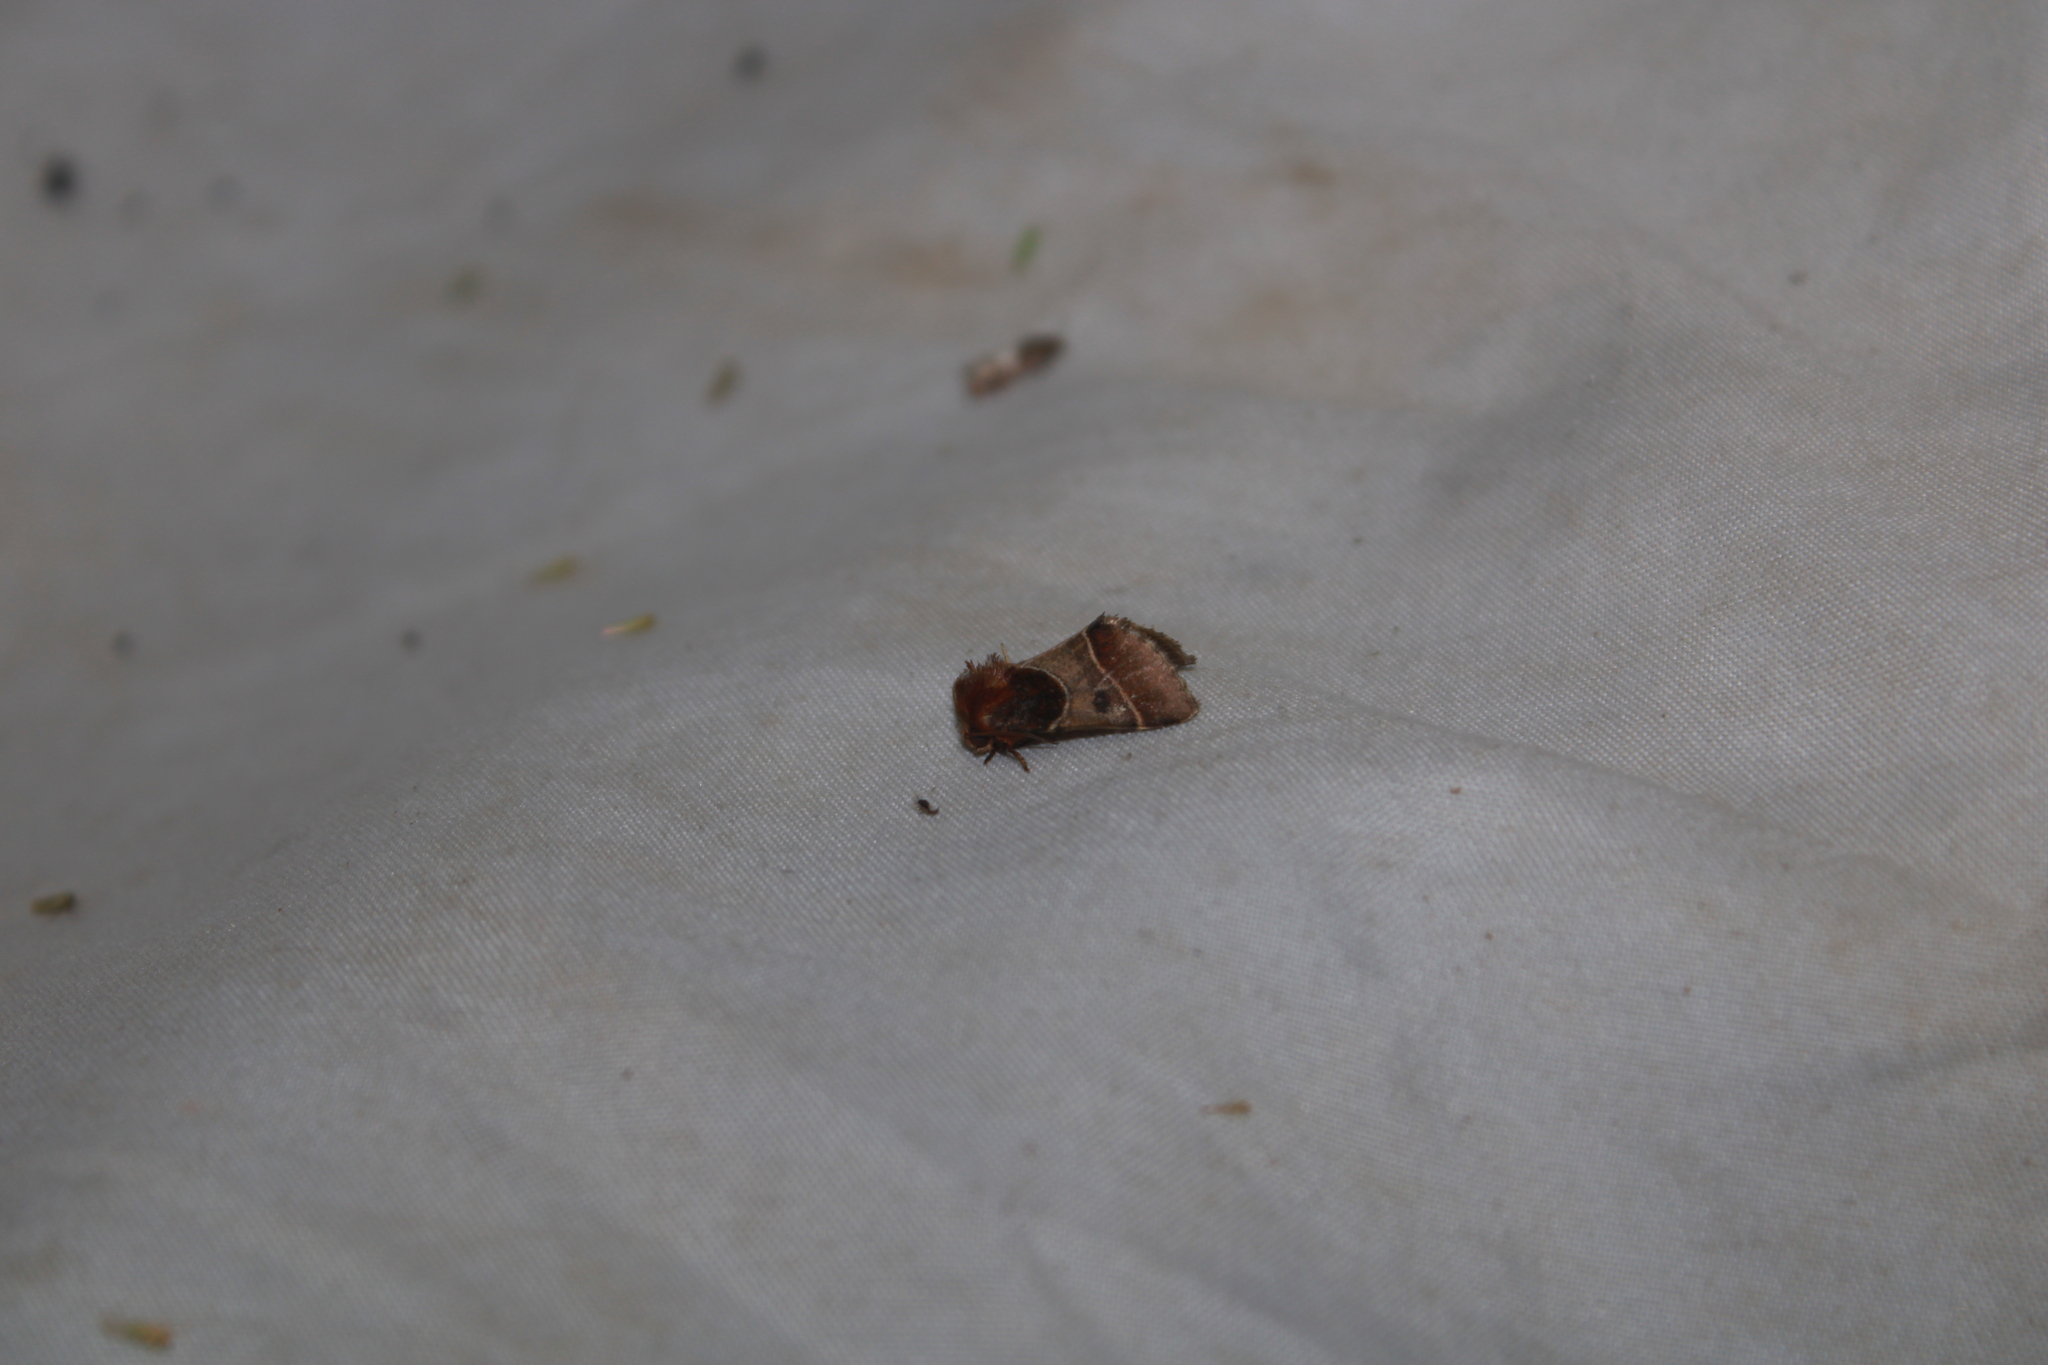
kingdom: Animalia
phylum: Arthropoda
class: Insecta
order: Lepidoptera
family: Noctuidae
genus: Schinia
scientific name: Schinia arcigera
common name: Arcigera flower moth
